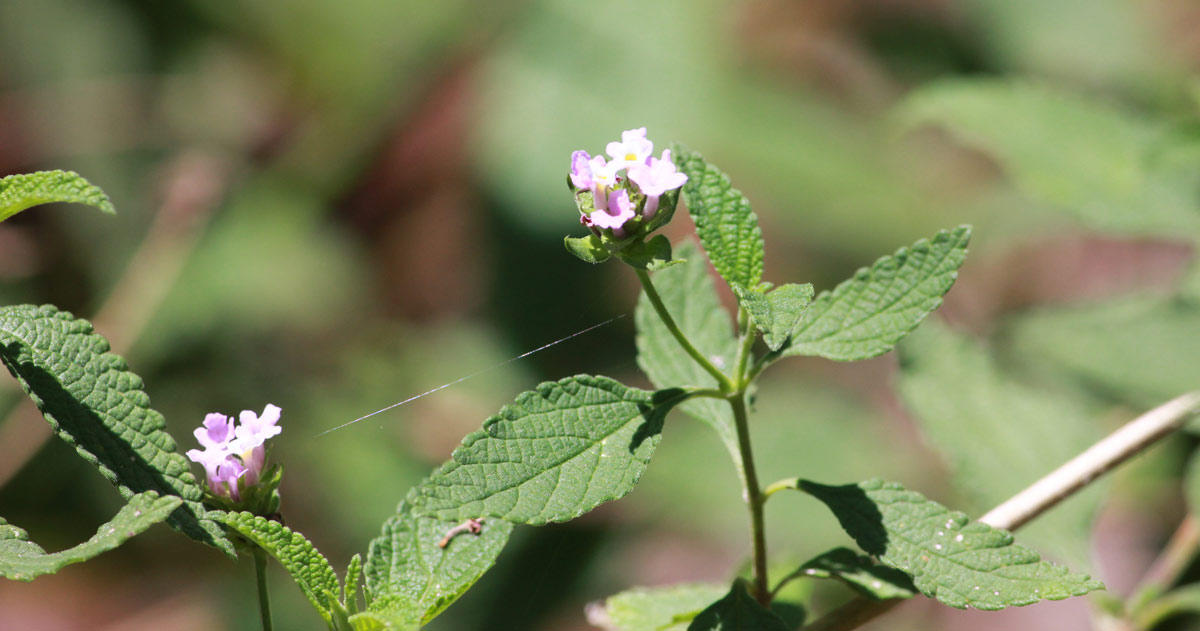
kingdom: Plantae
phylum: Tracheophyta
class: Magnoliopsida
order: Lamiales
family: Verbenaceae
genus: Lantana
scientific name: Lantana rugosa
